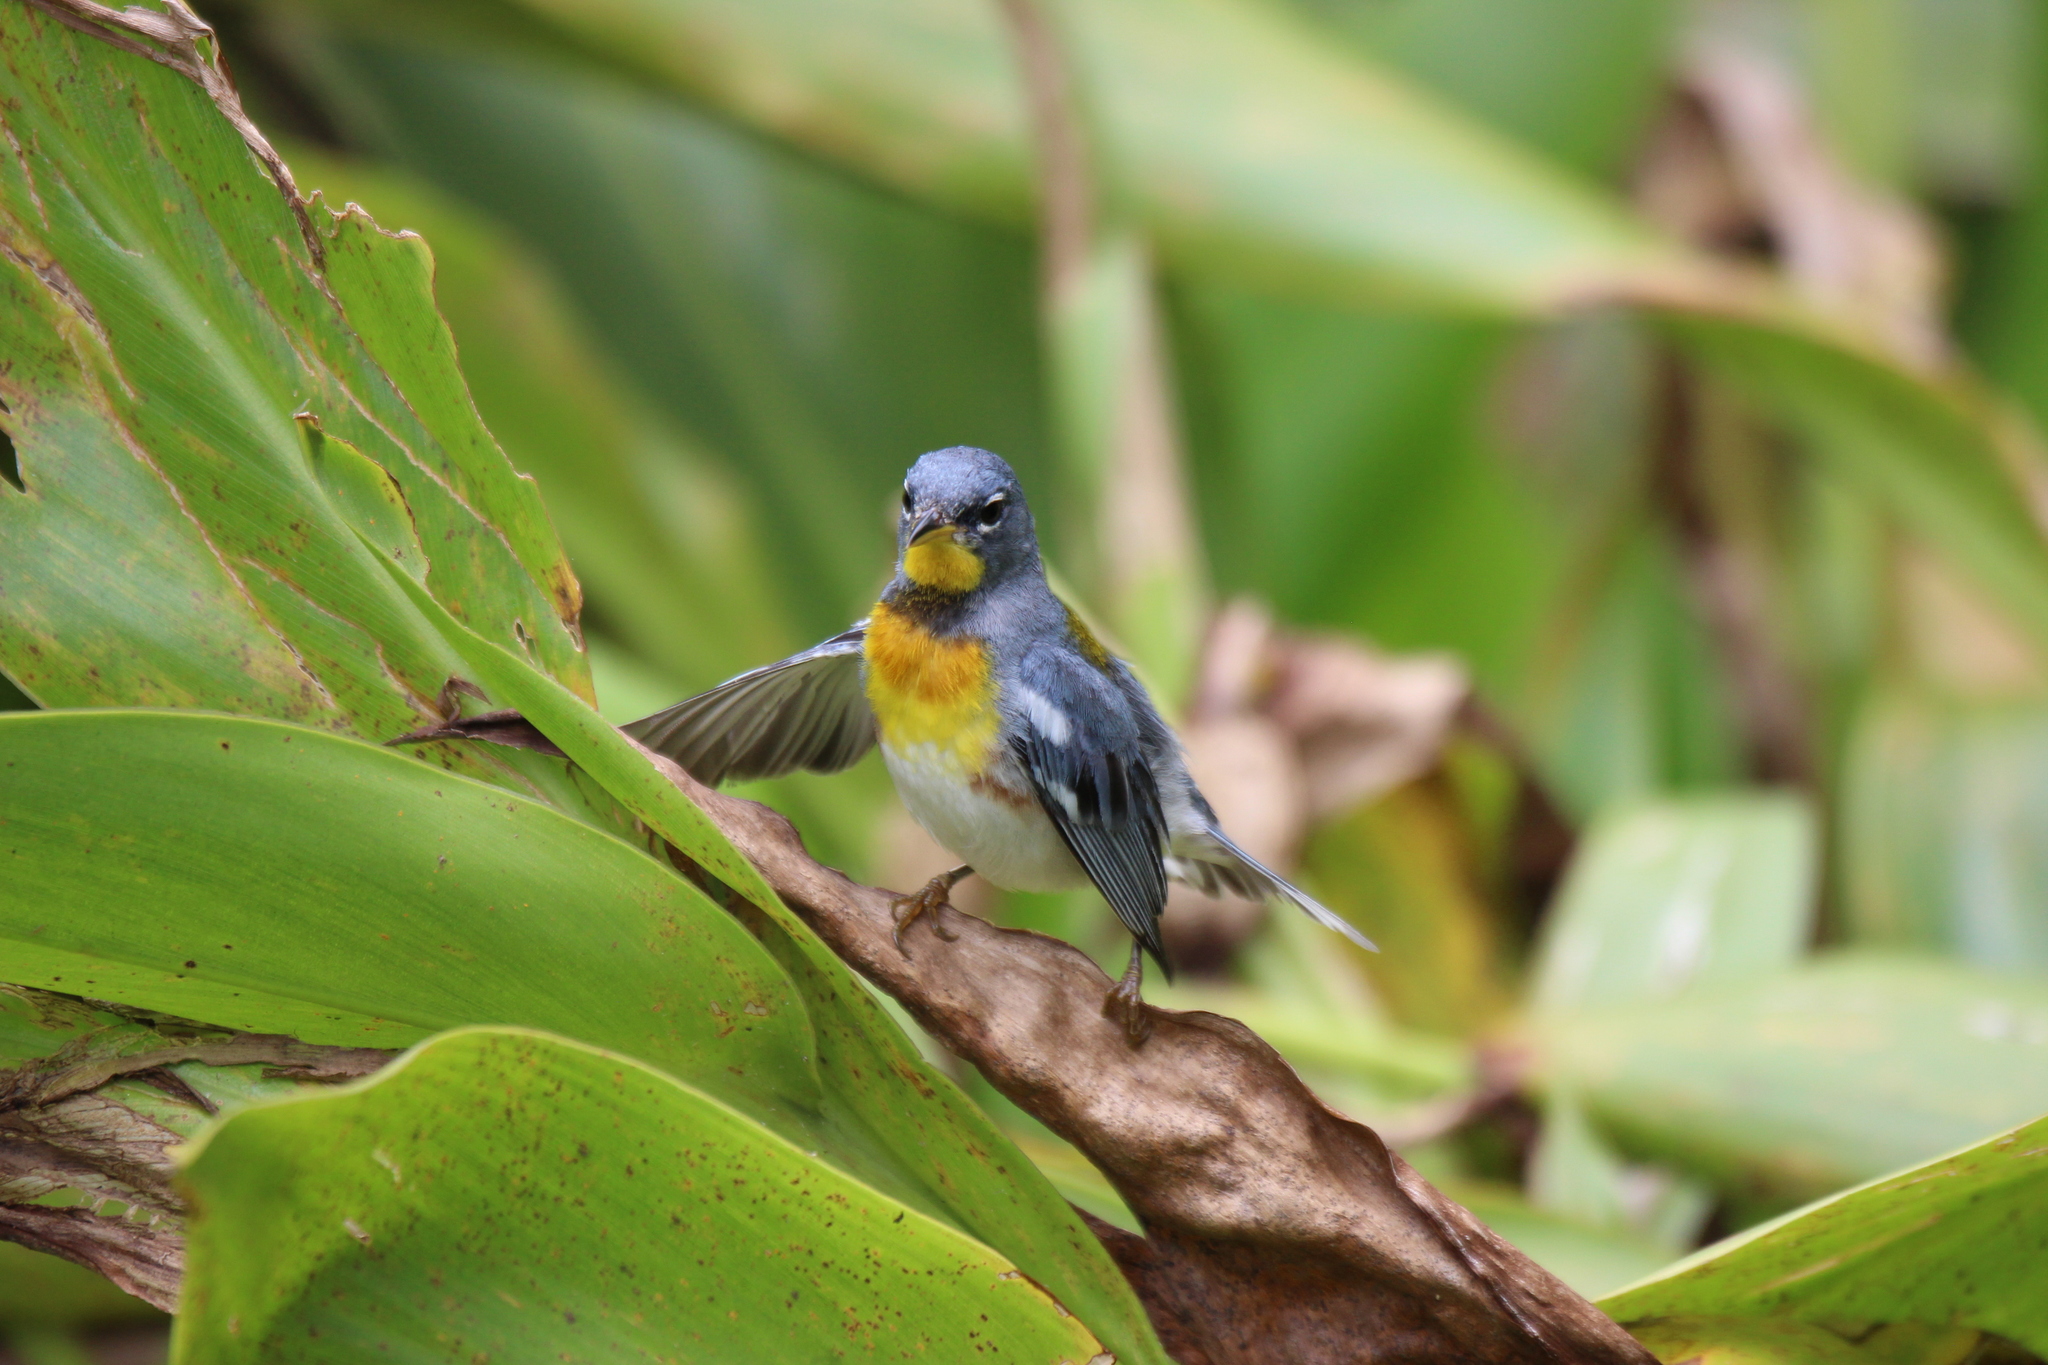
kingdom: Animalia
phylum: Chordata
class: Aves
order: Passeriformes
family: Parulidae
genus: Setophaga
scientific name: Setophaga americana
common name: Northern parula
